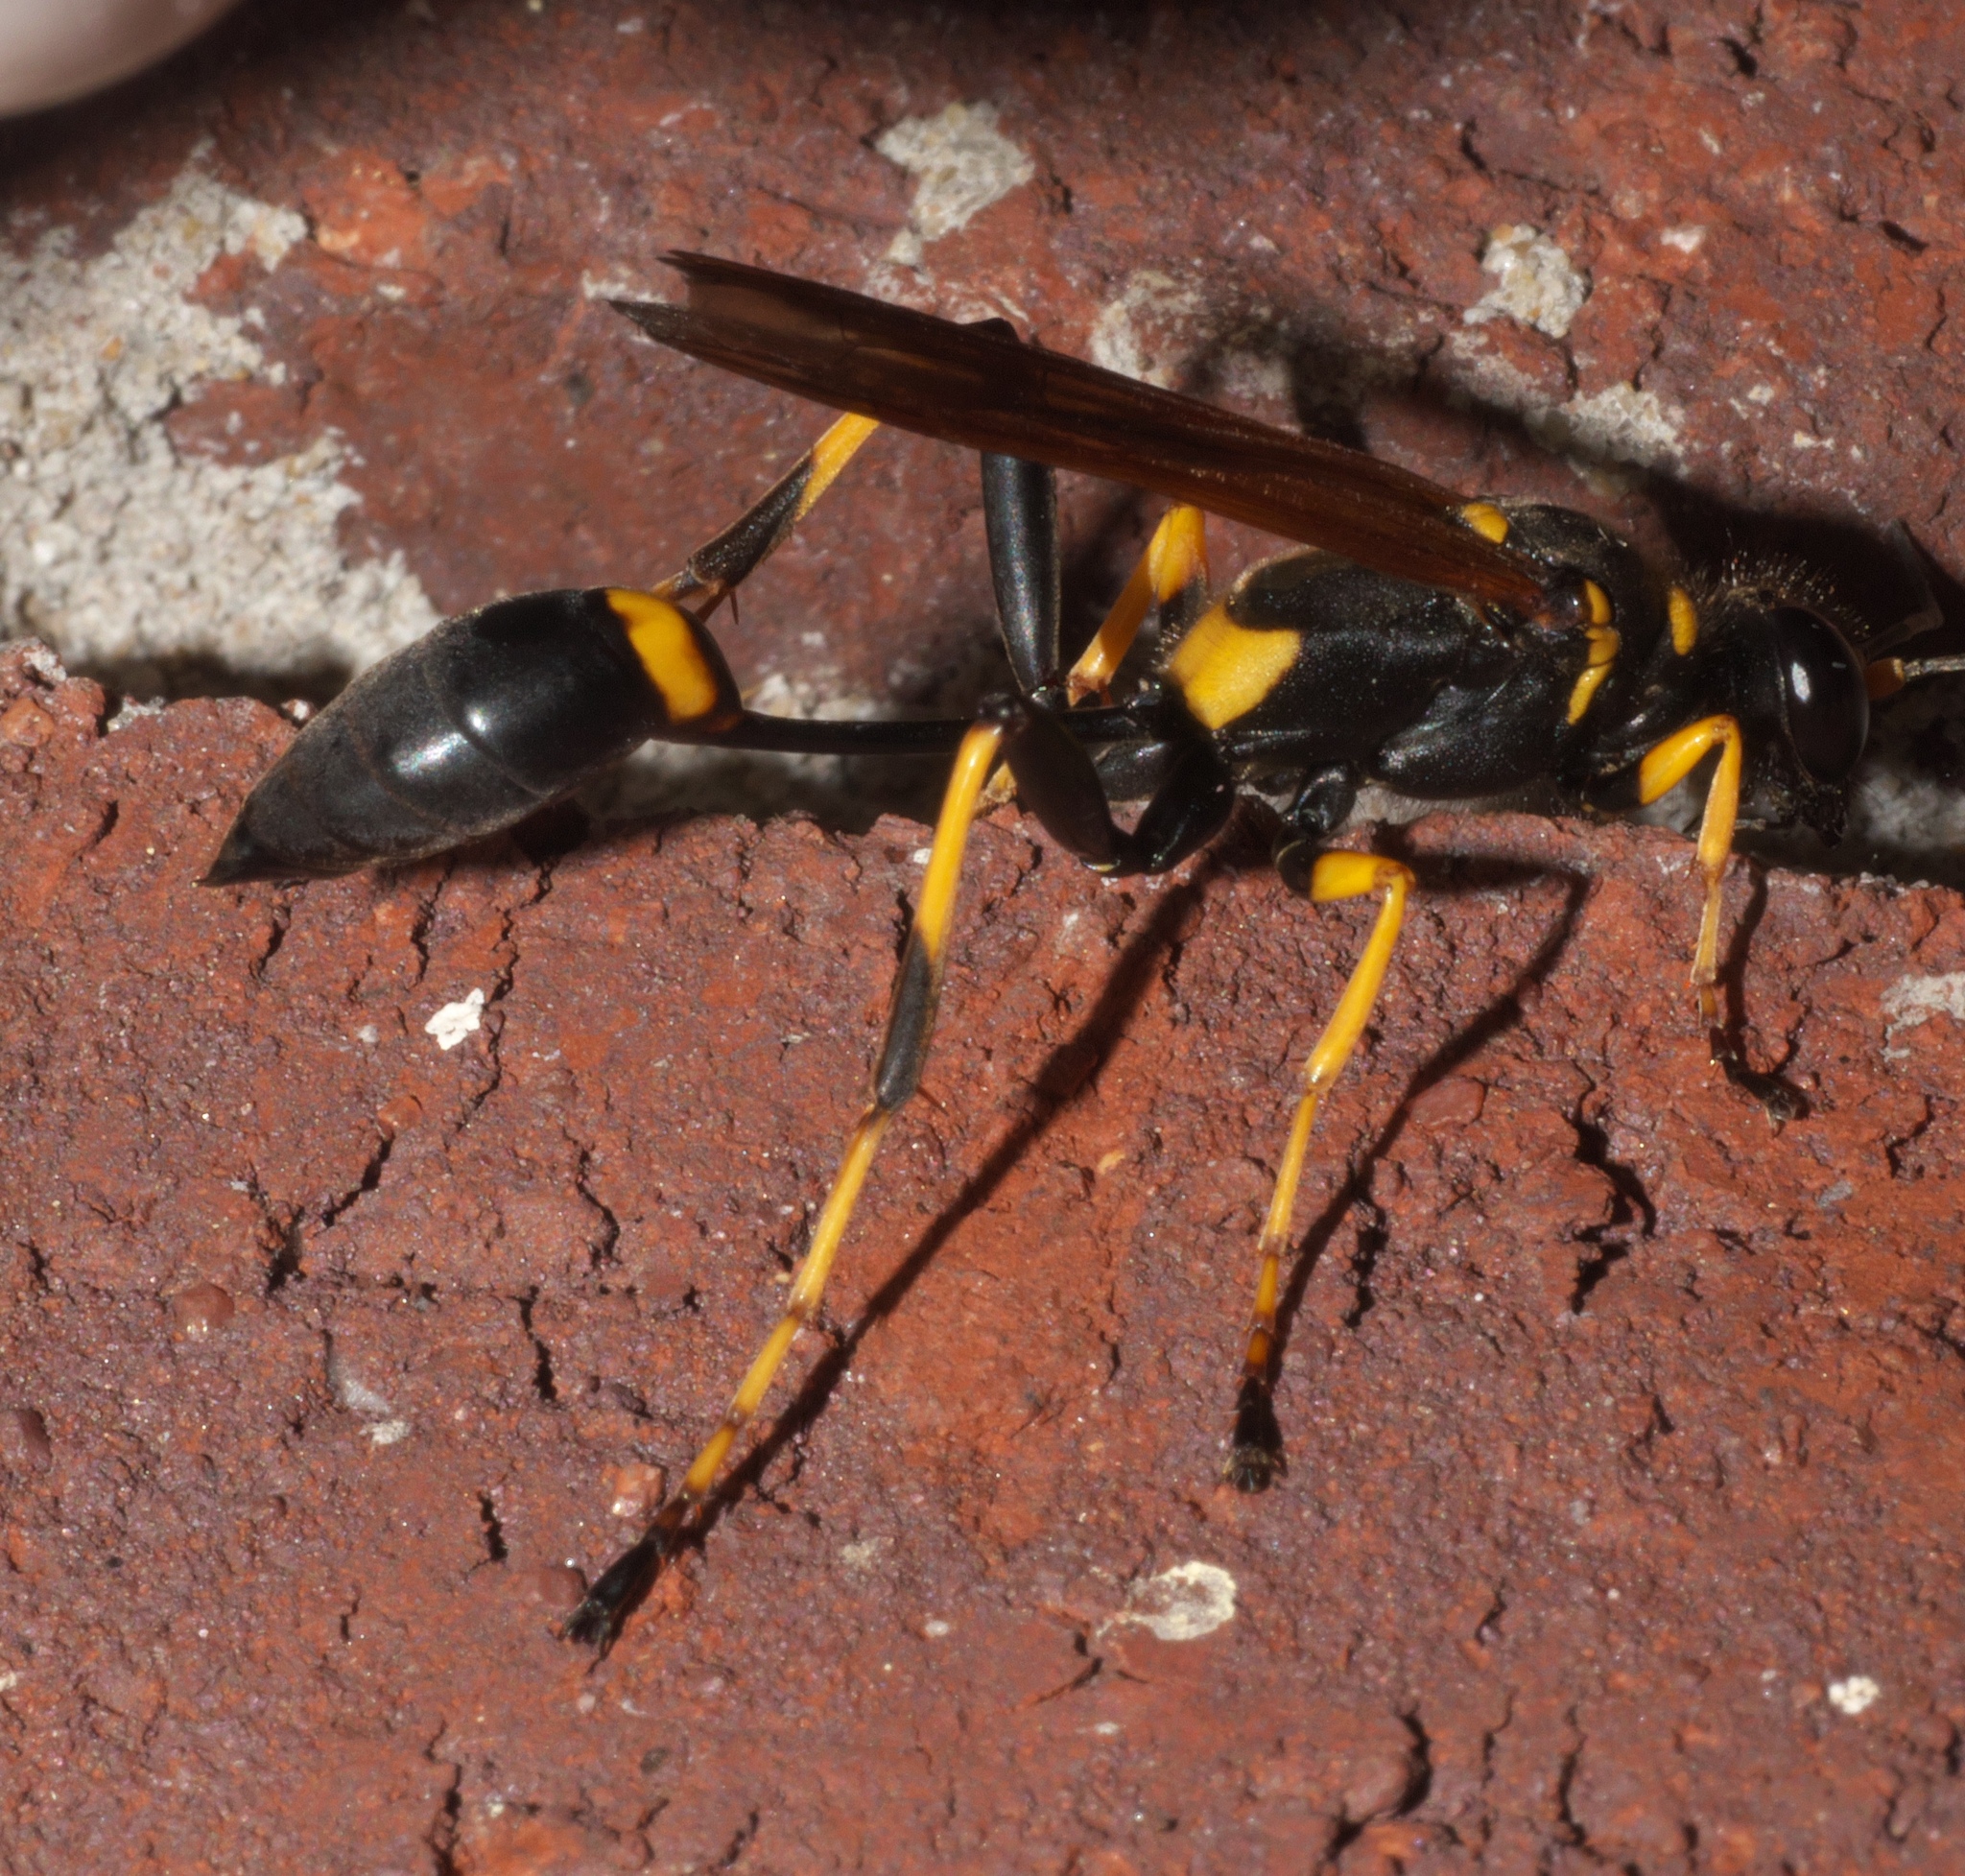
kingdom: Animalia
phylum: Arthropoda
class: Insecta
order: Hymenoptera
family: Sphecidae
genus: Sceliphron
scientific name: Sceliphron caementarium
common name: Mud dauber
